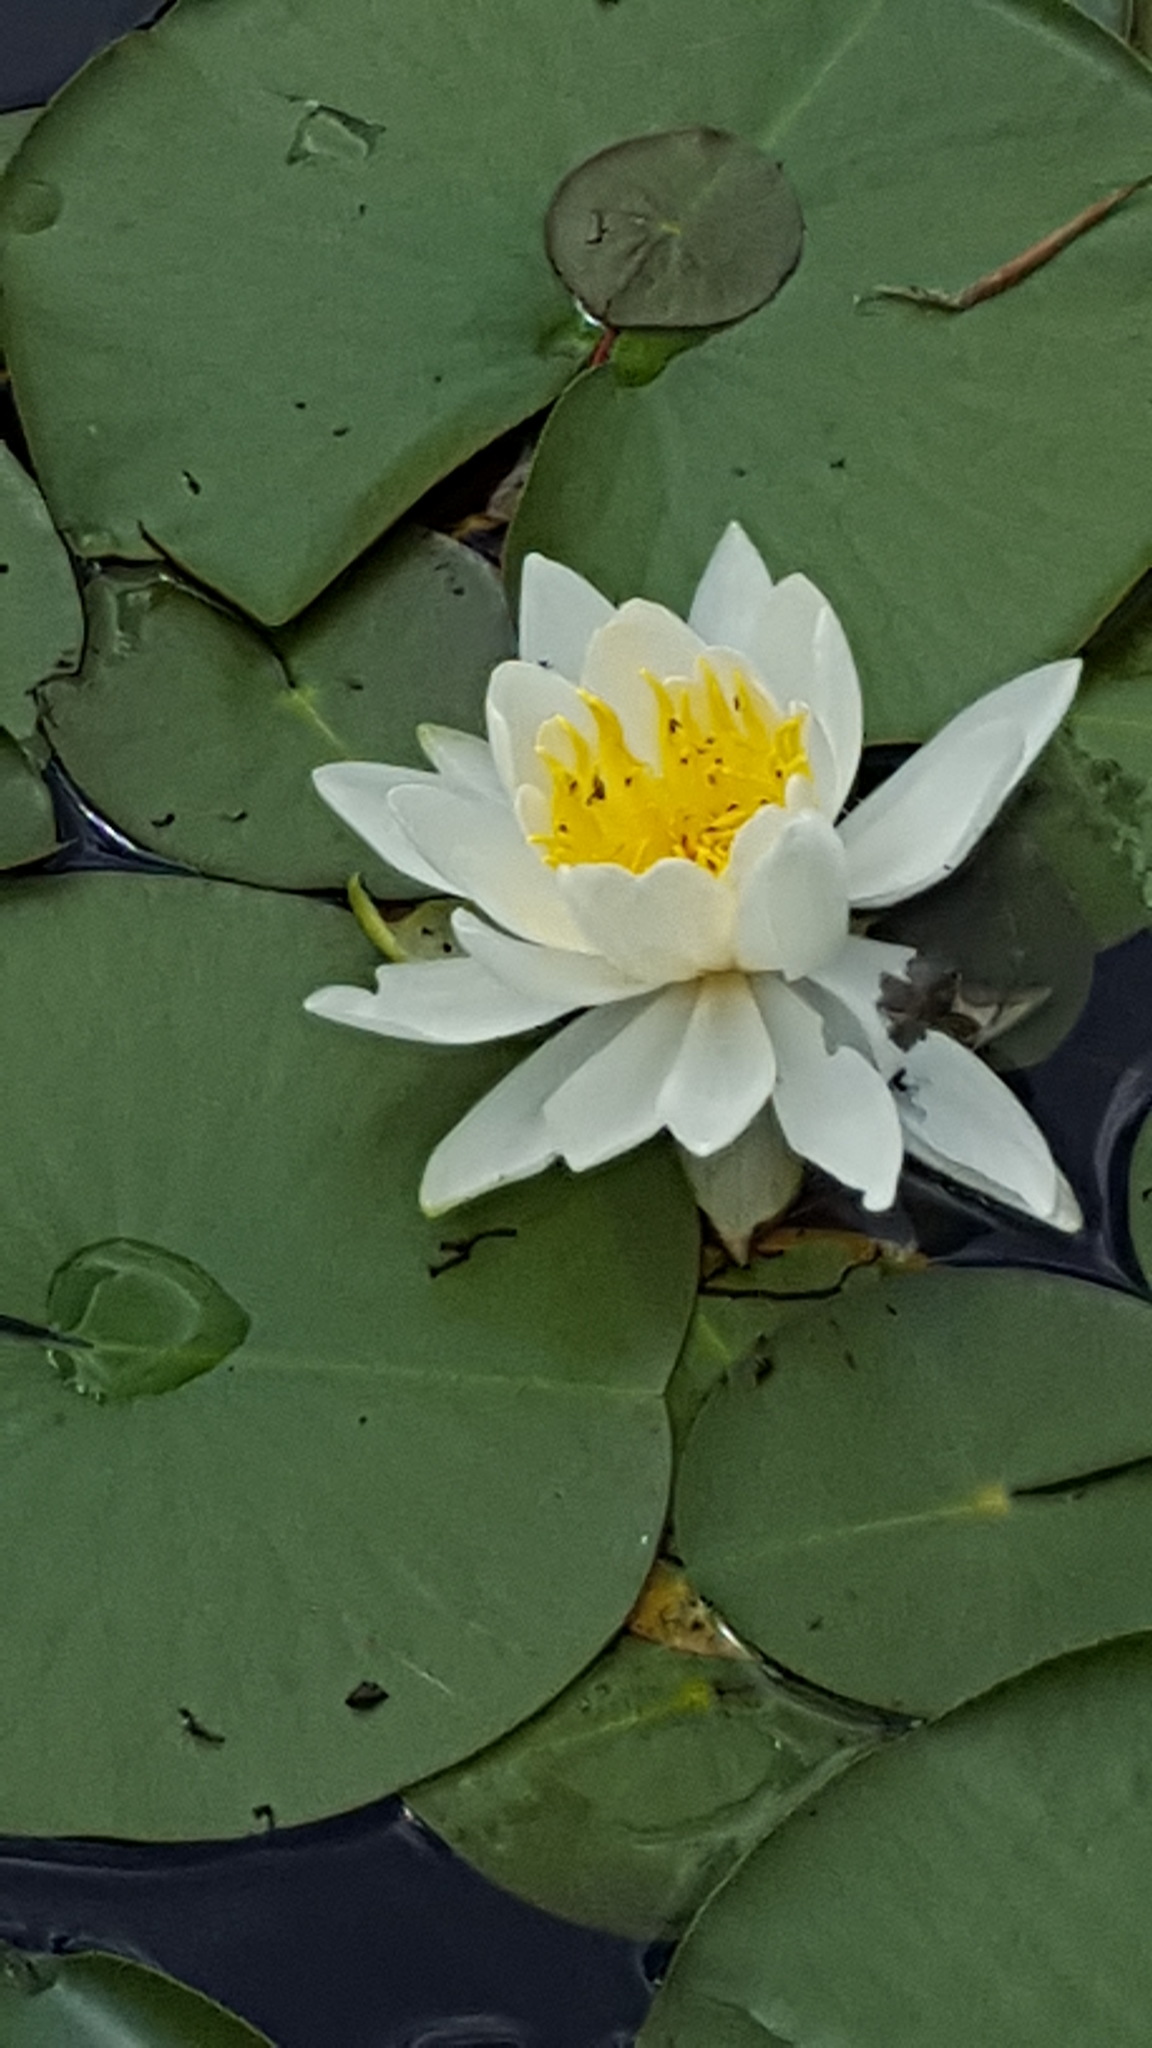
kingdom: Plantae
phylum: Tracheophyta
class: Magnoliopsida
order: Nymphaeales
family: Nymphaeaceae
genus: Nymphaea
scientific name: Nymphaea odorata
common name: Fragrant water-lily
